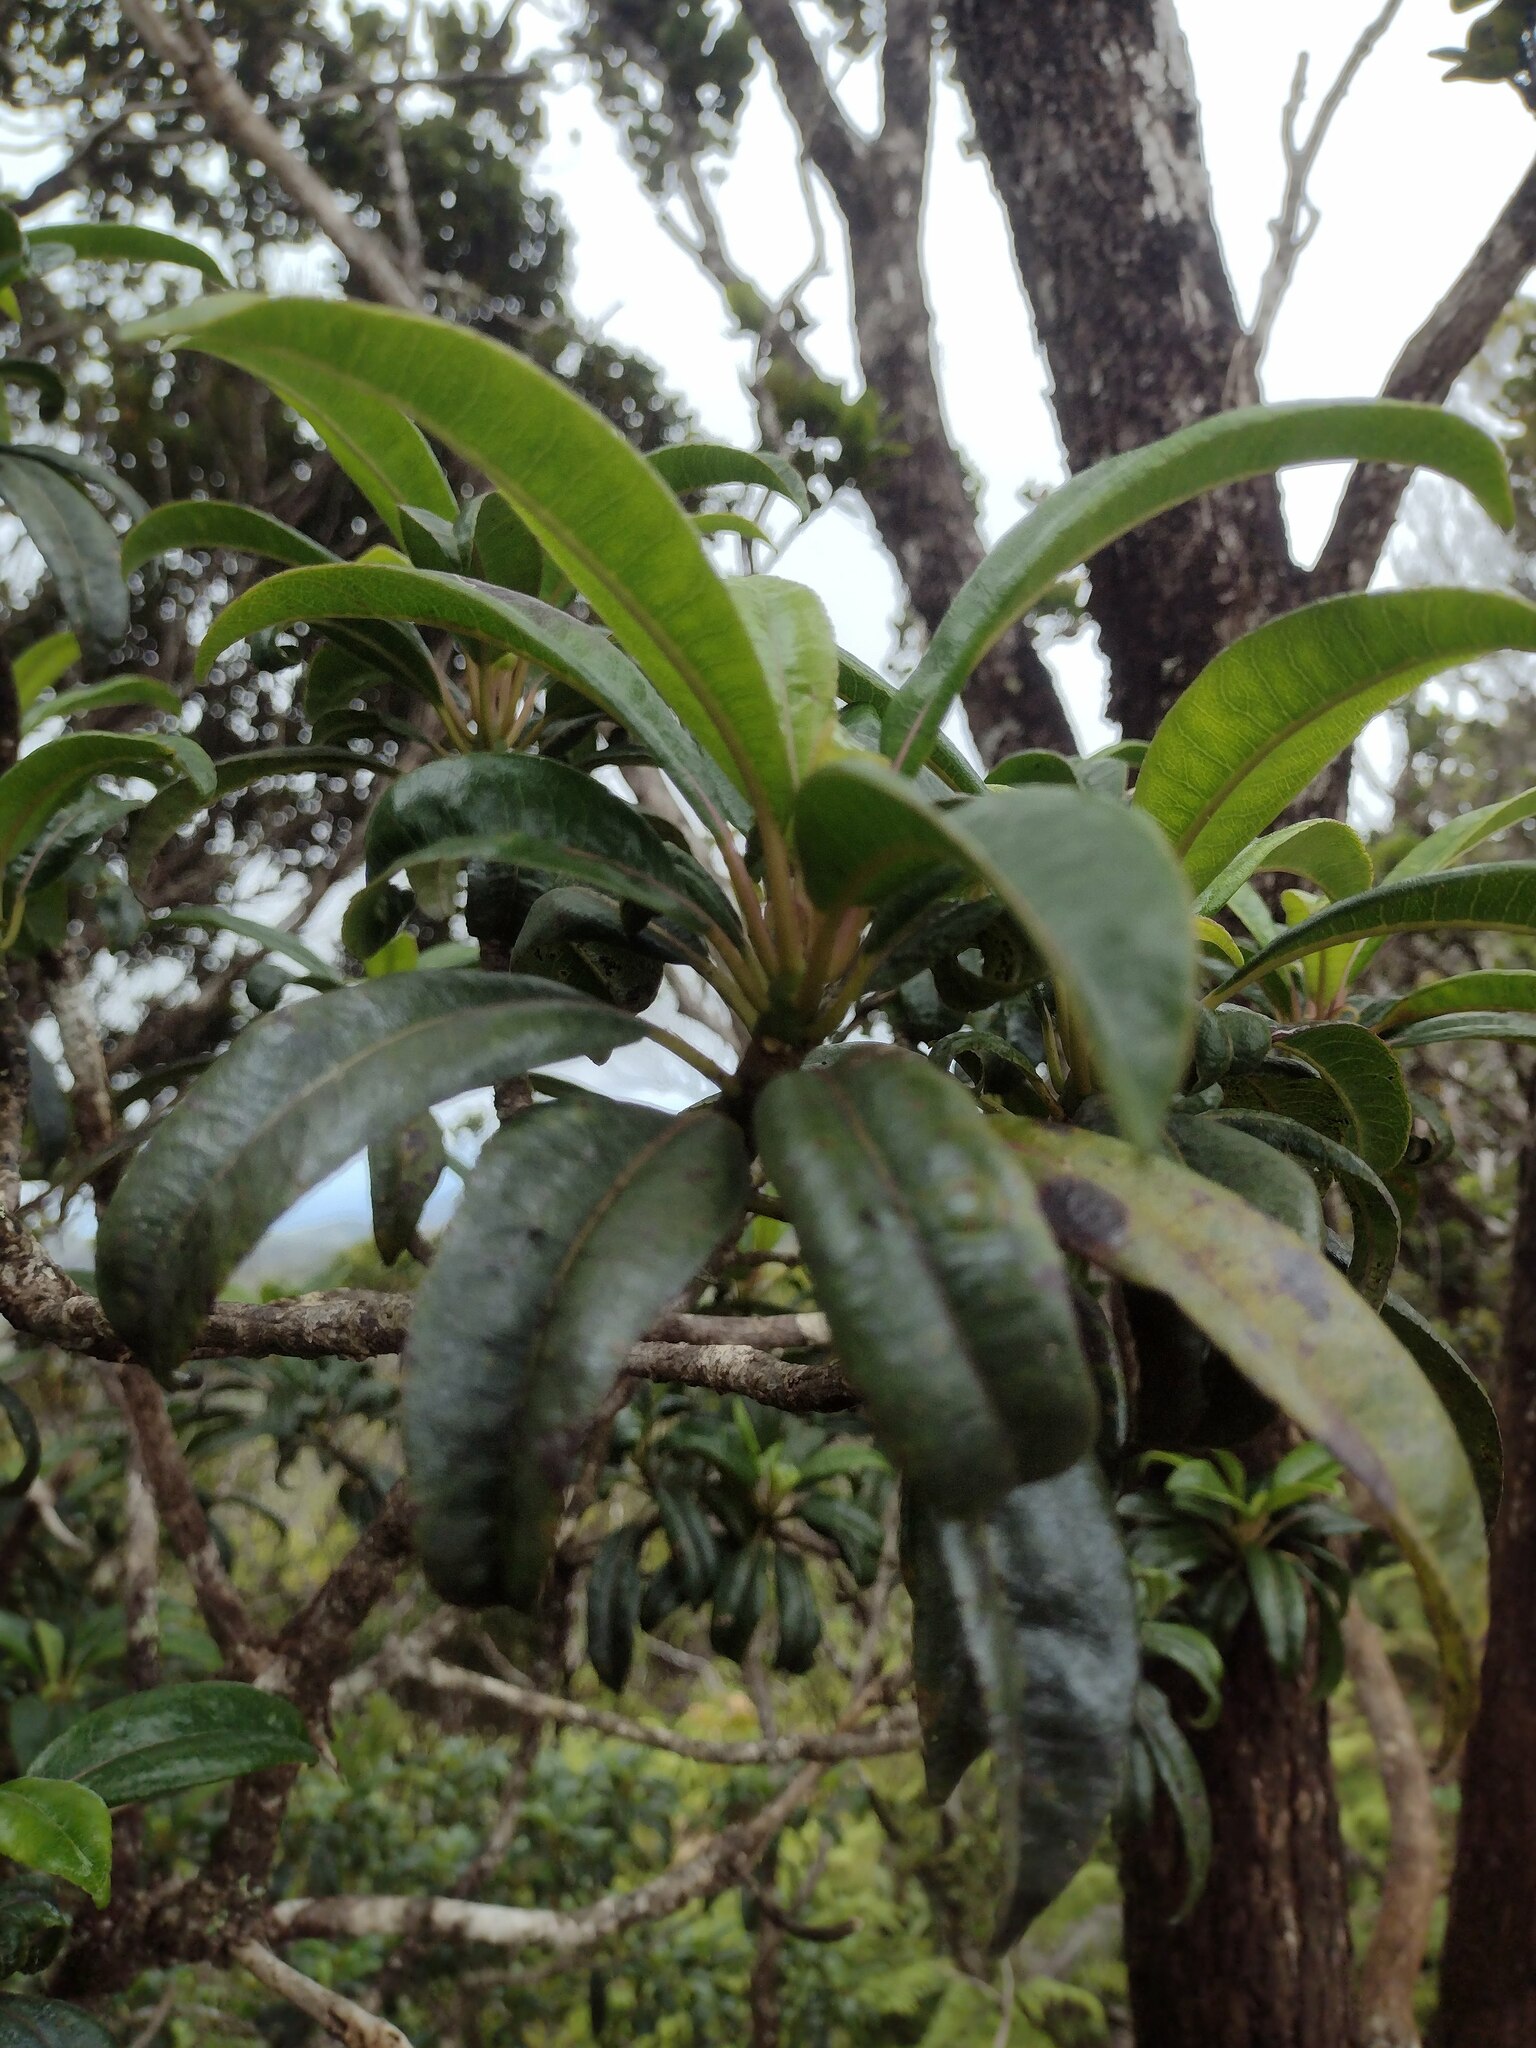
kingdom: Plantae
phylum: Tracheophyta
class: Magnoliopsida
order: Asterales
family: Campanulaceae
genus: Clermontia
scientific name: Clermontia fauriei
